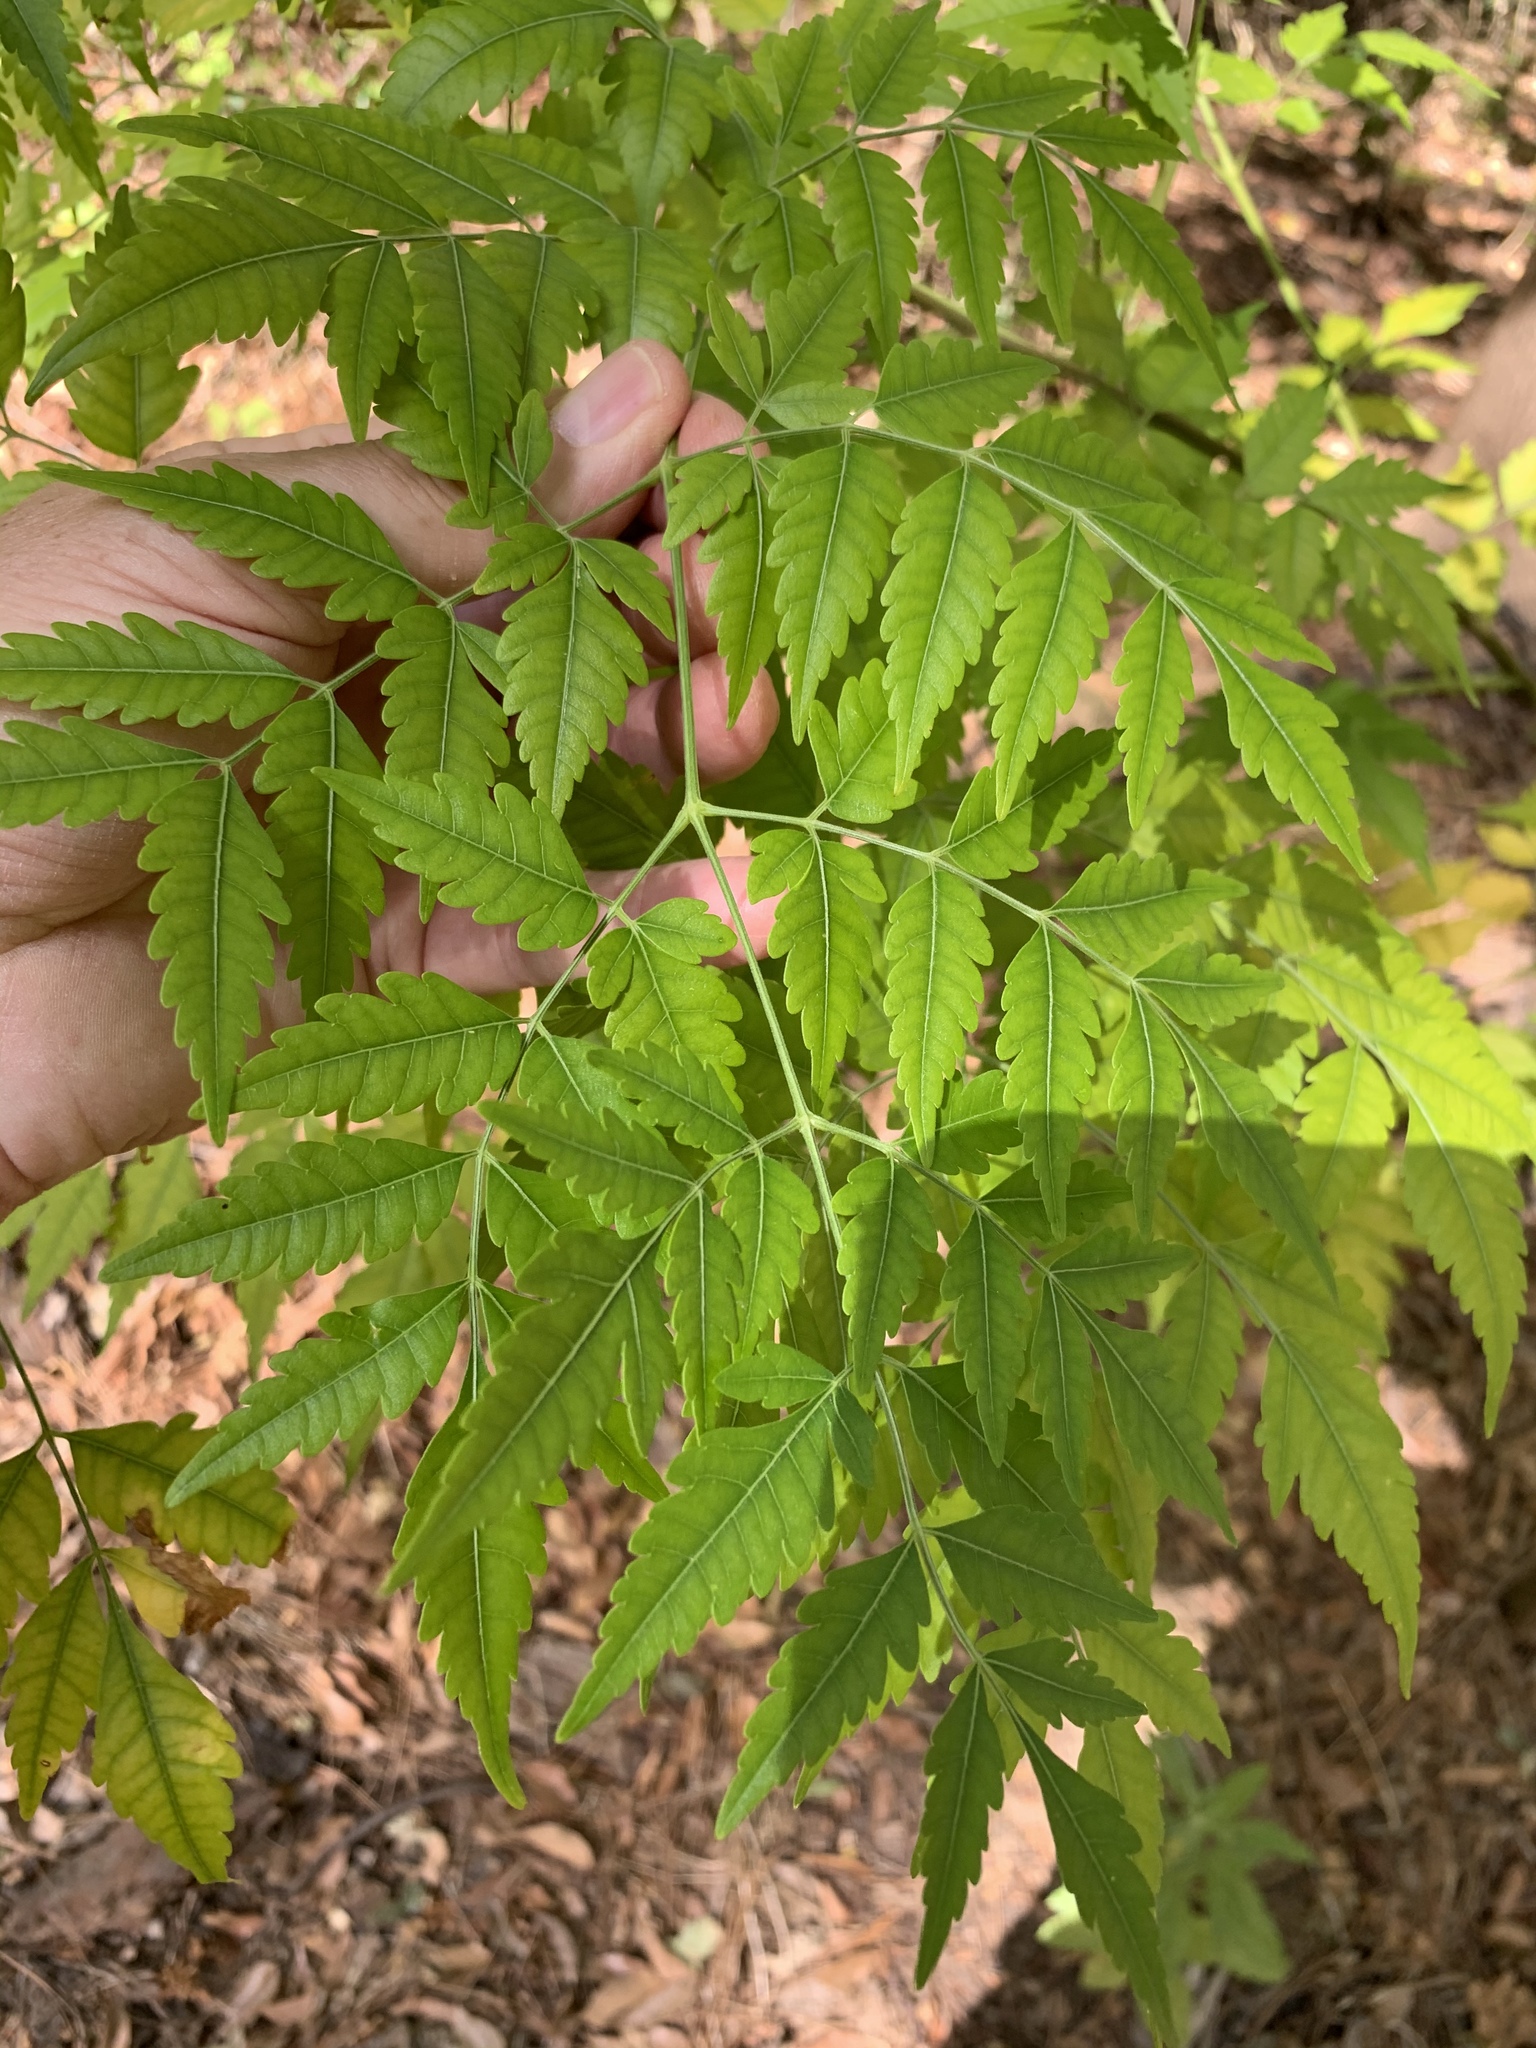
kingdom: Plantae
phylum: Tracheophyta
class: Magnoliopsida
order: Sapindales
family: Meliaceae
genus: Melia
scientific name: Melia azedarach
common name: Chinaberrytree
